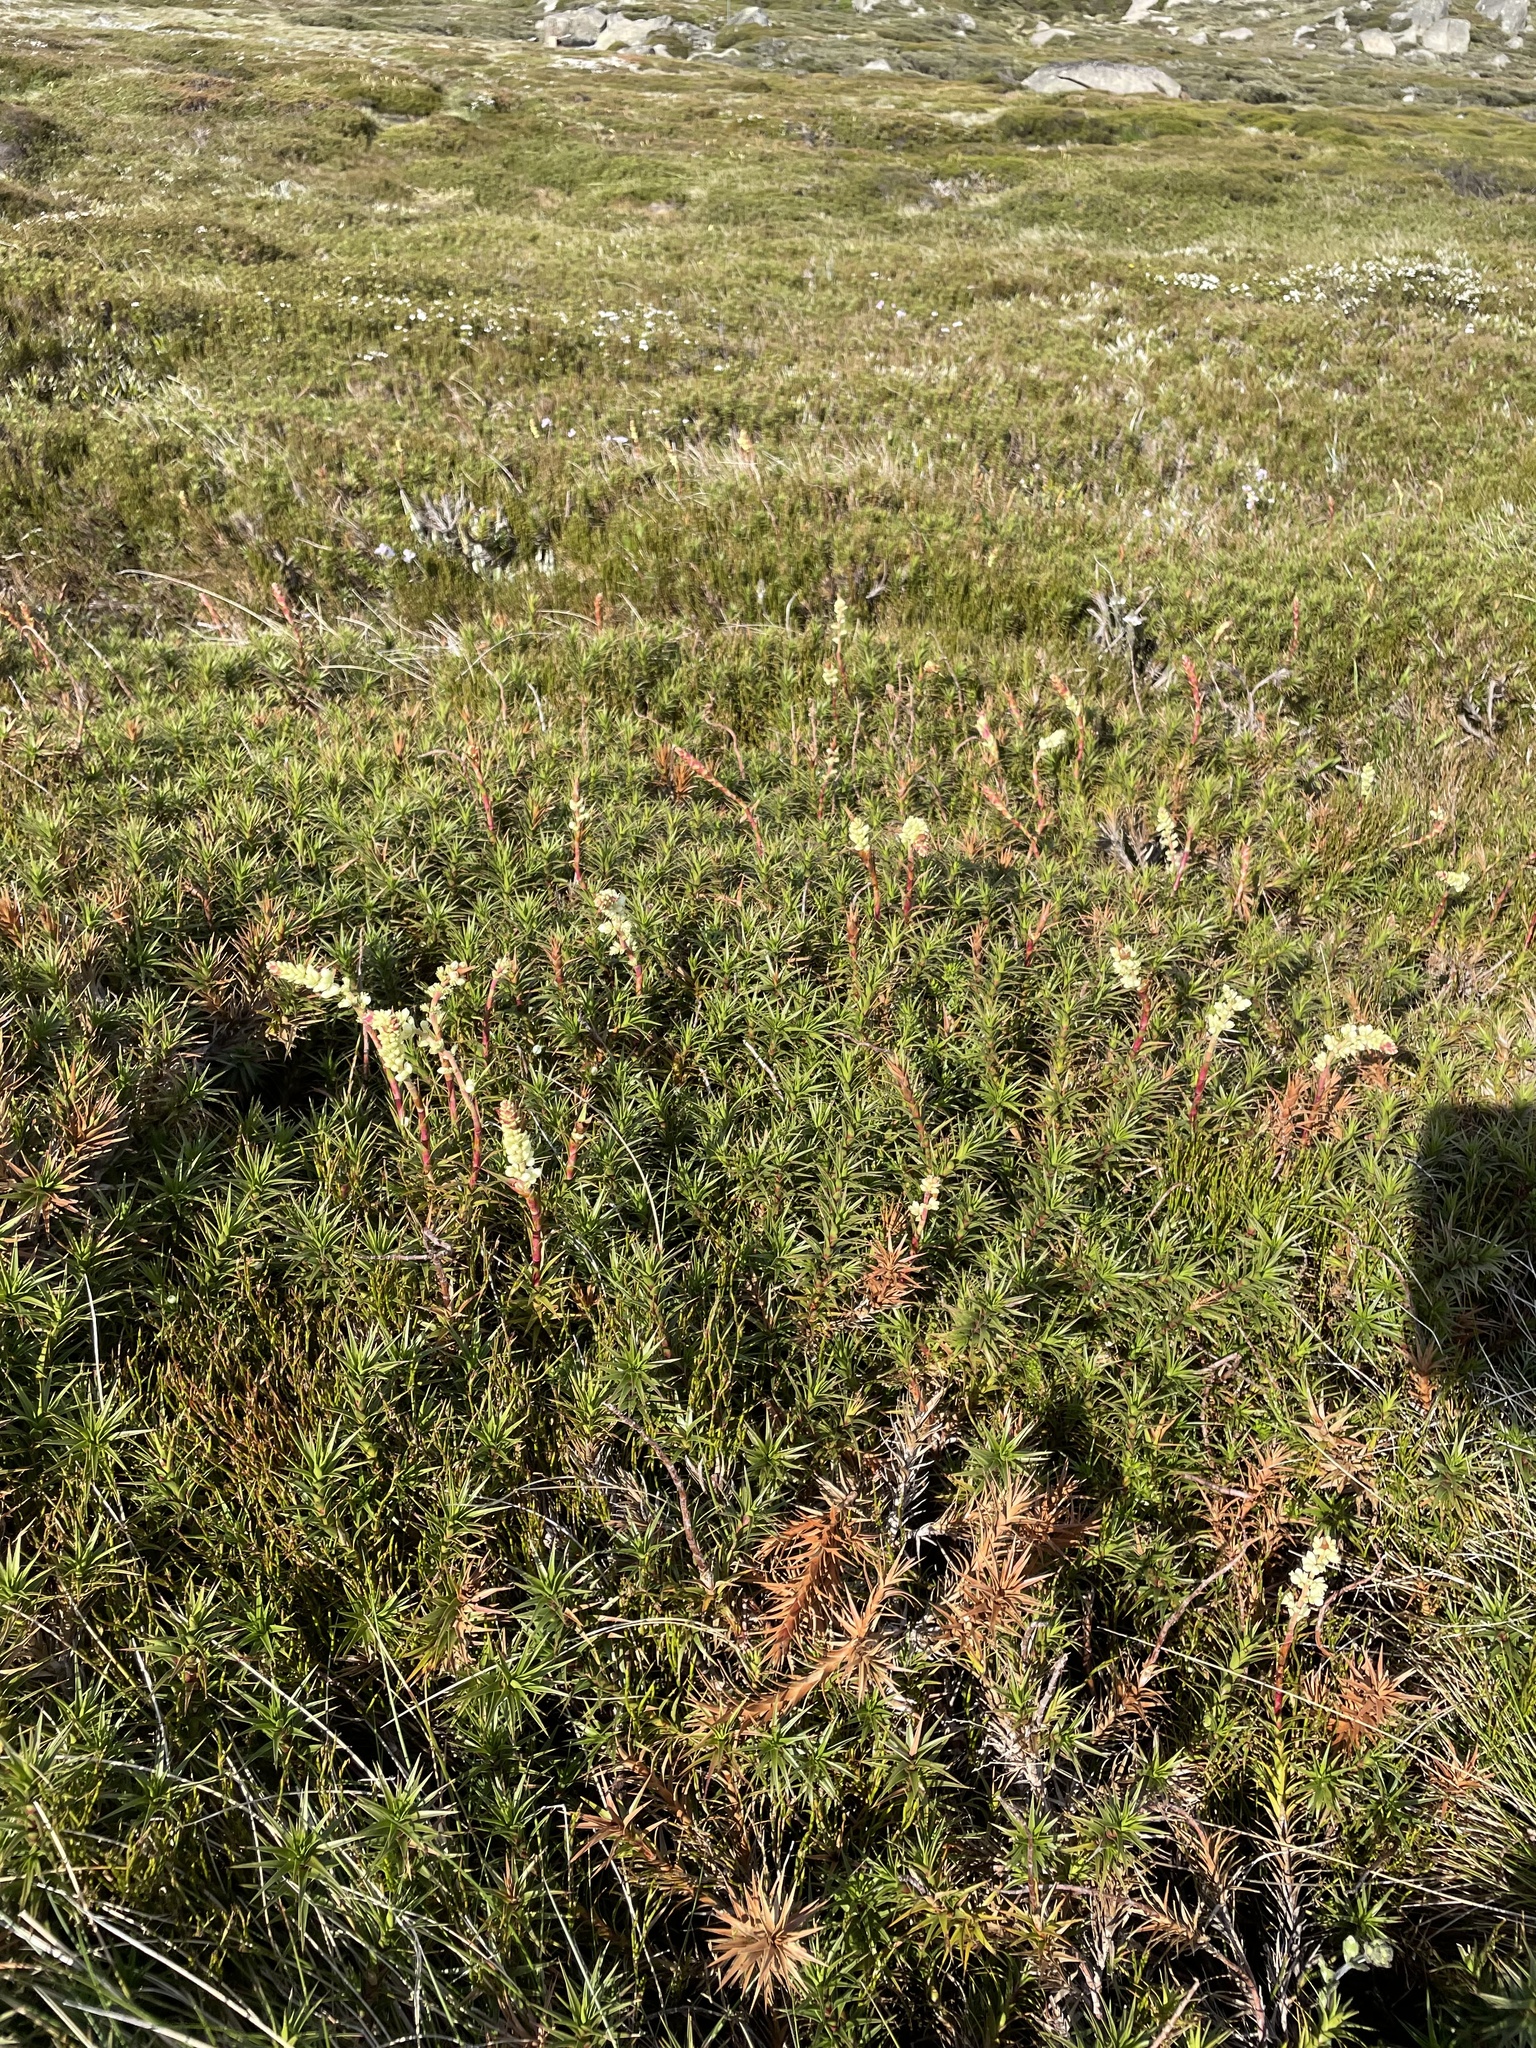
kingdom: Plantae
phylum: Tracheophyta
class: Magnoliopsida
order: Ericales
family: Ericaceae
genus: Dracophyllum
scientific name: Dracophyllum continentis
